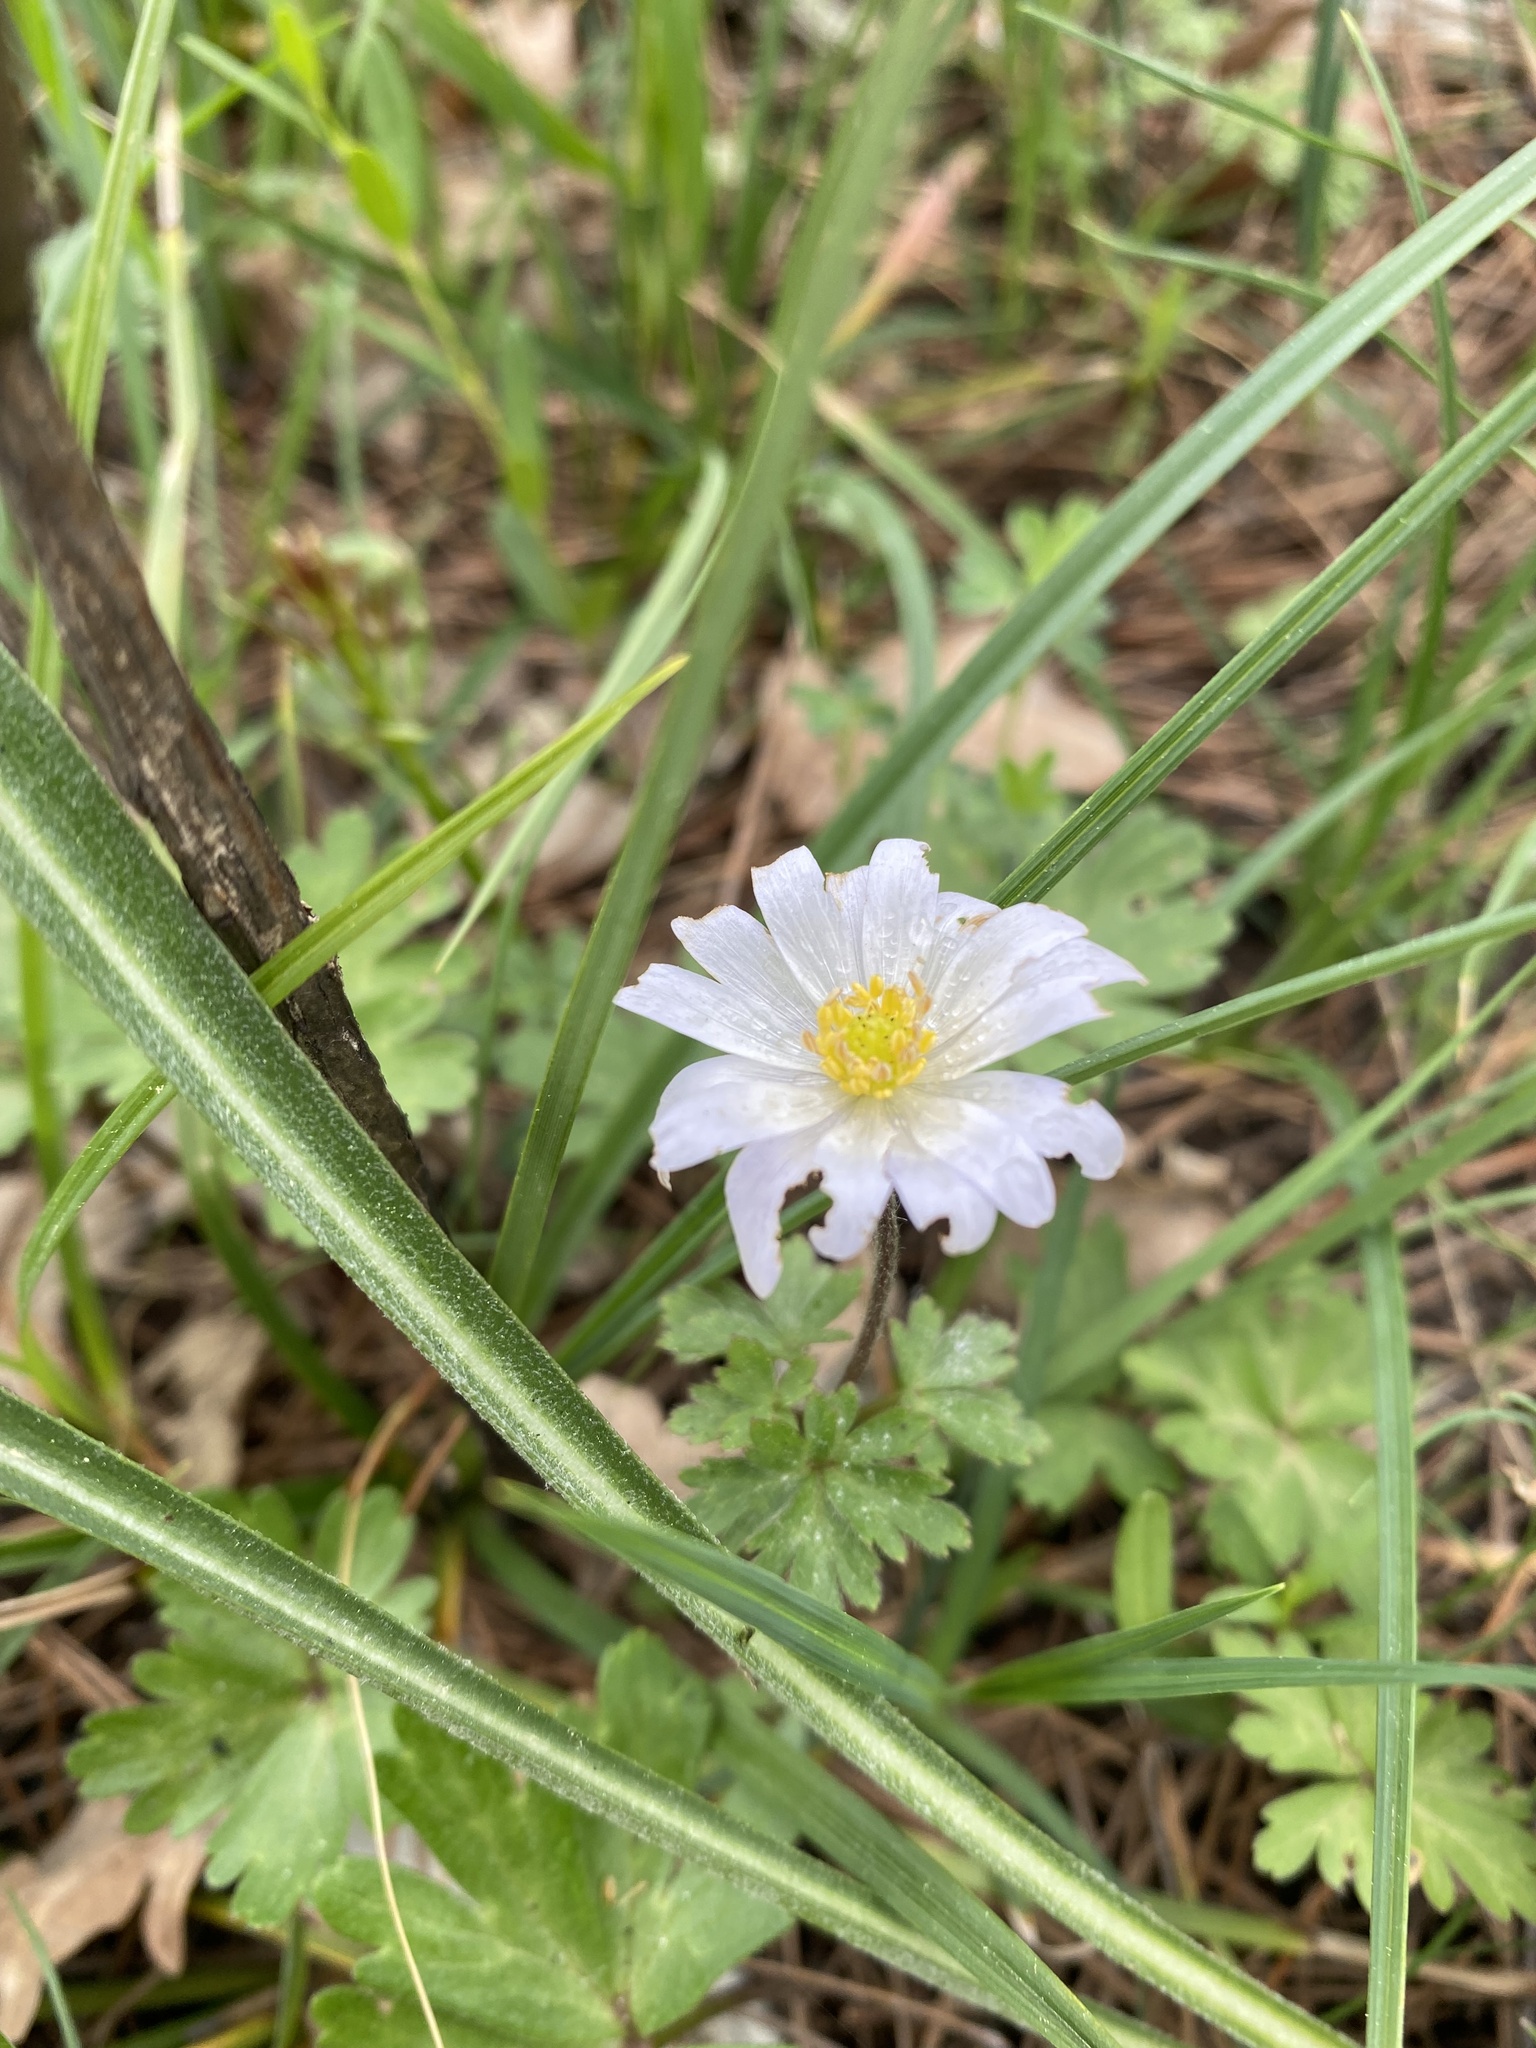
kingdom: Plantae
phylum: Tracheophyta
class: Magnoliopsida
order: Ranunculales
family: Ranunculaceae
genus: Anemone
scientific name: Anemone blanda
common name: Balkan anemone
